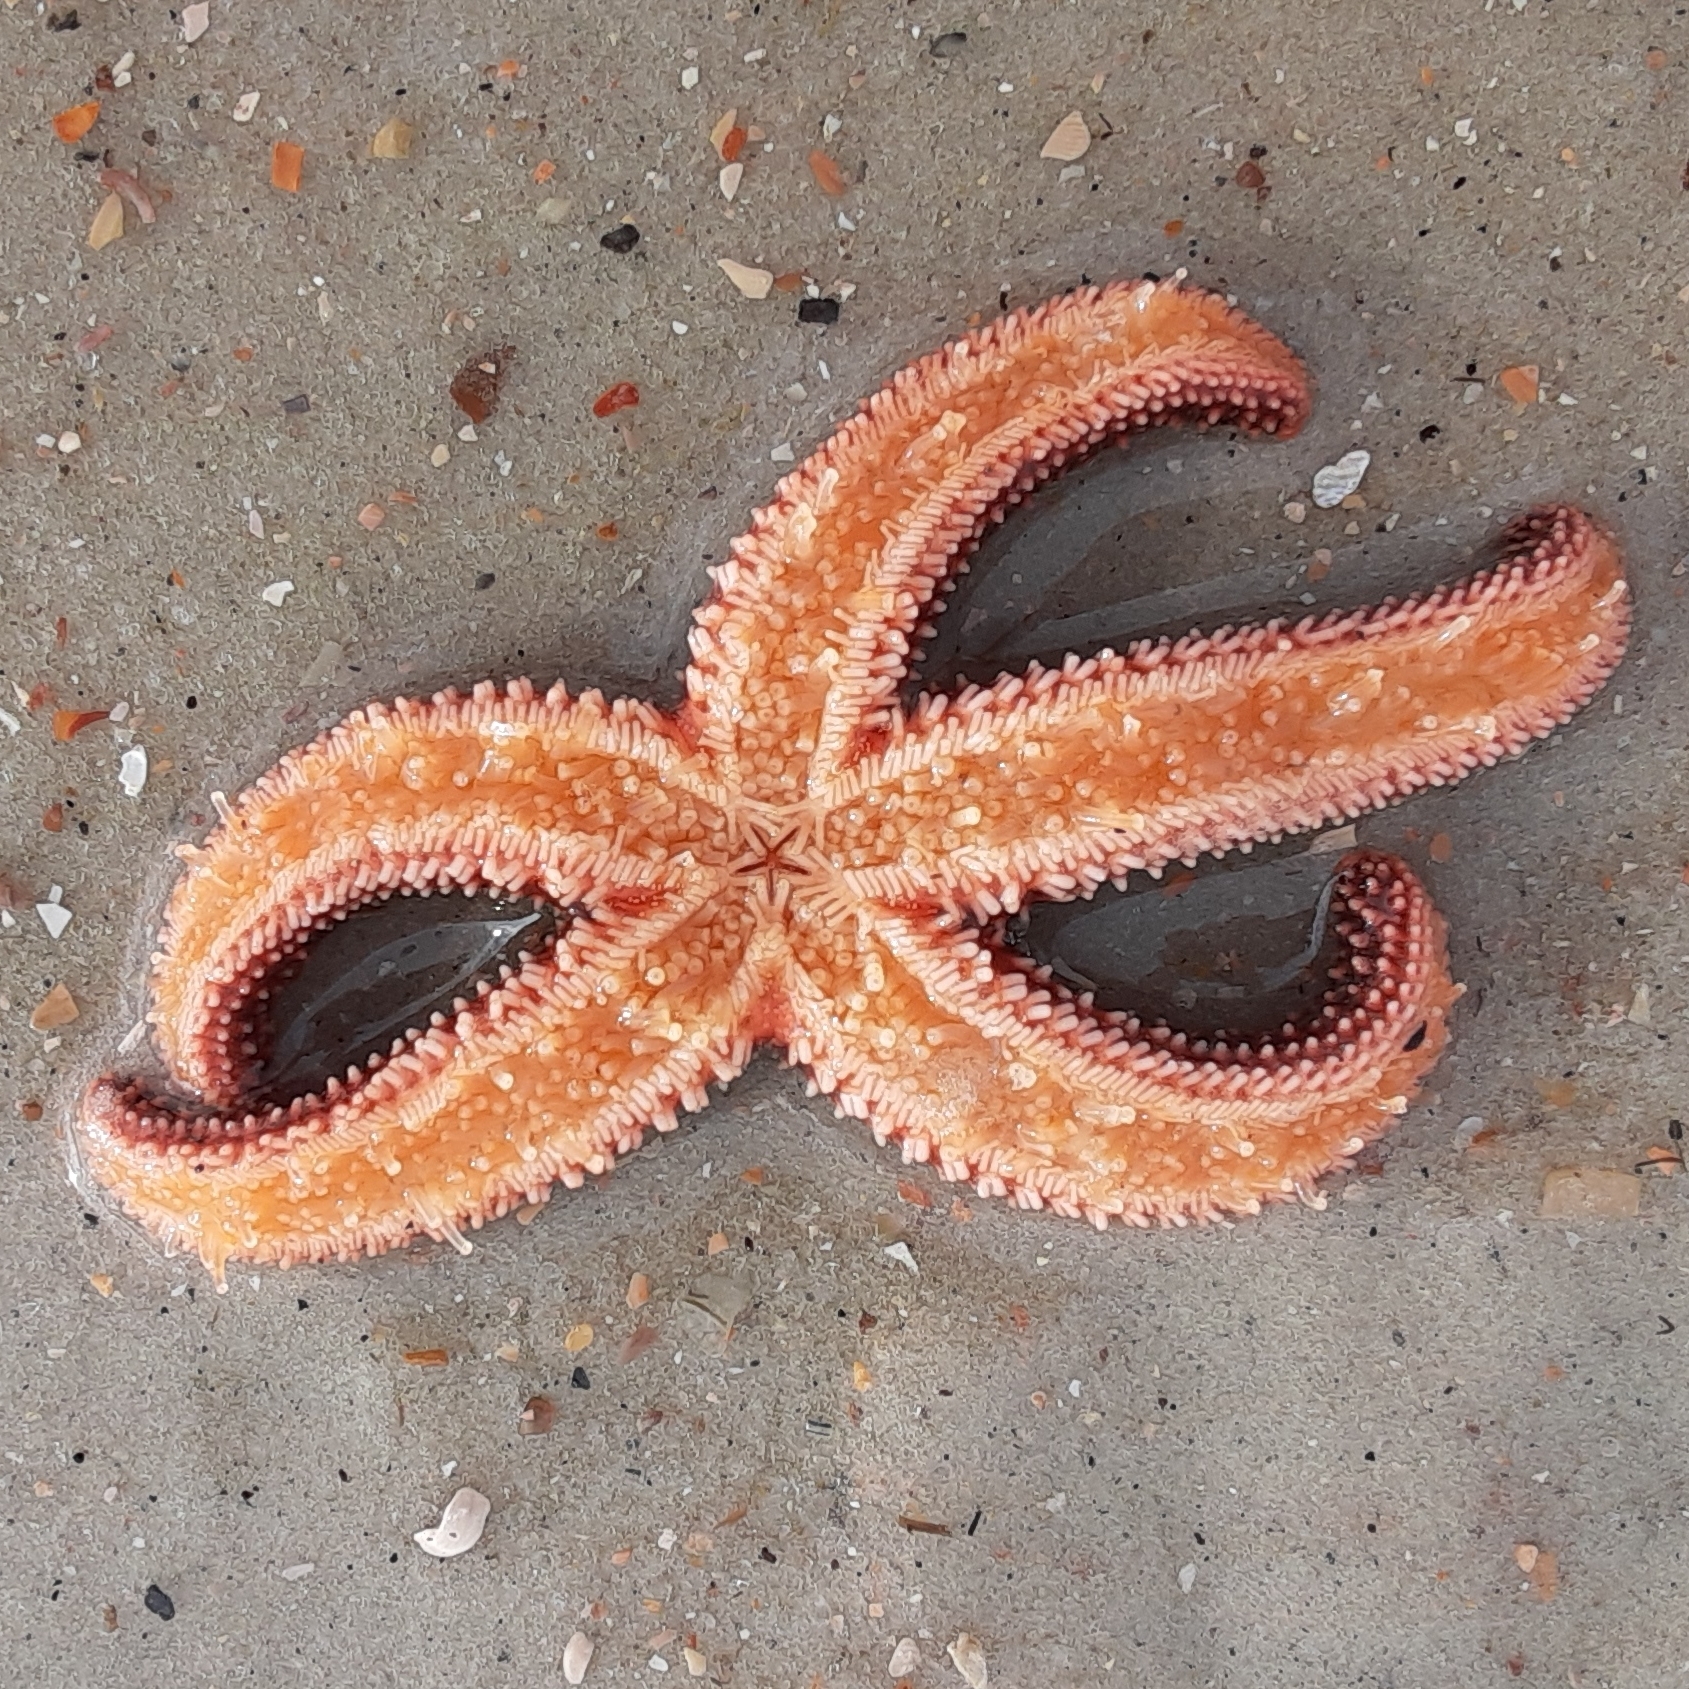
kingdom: Animalia
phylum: Echinodermata
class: Asteroidea
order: Forcipulatida
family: Asteriidae
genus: Asterias
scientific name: Asterias forbesi
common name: Forbes's sea star
